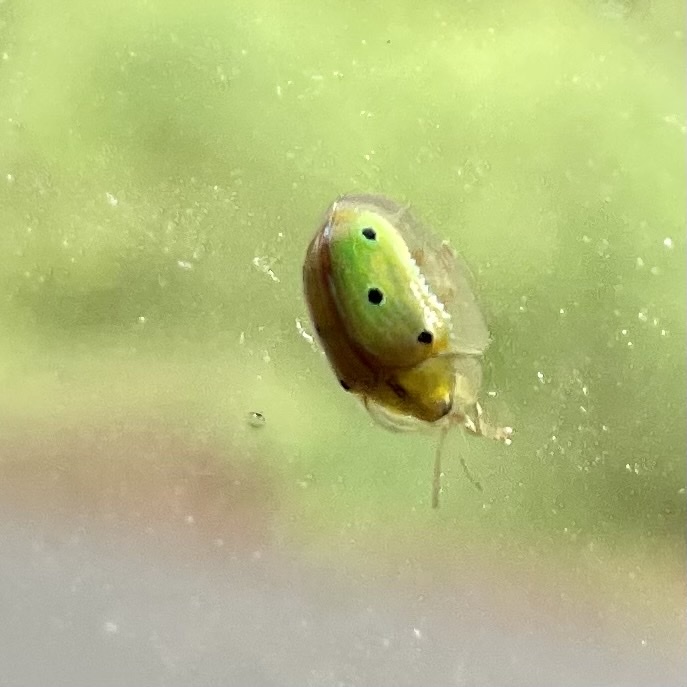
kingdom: Animalia
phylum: Arthropoda
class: Insecta
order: Coleoptera
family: Chrysomelidae
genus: Chiridopsis
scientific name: Chiridopsis bipunctata
